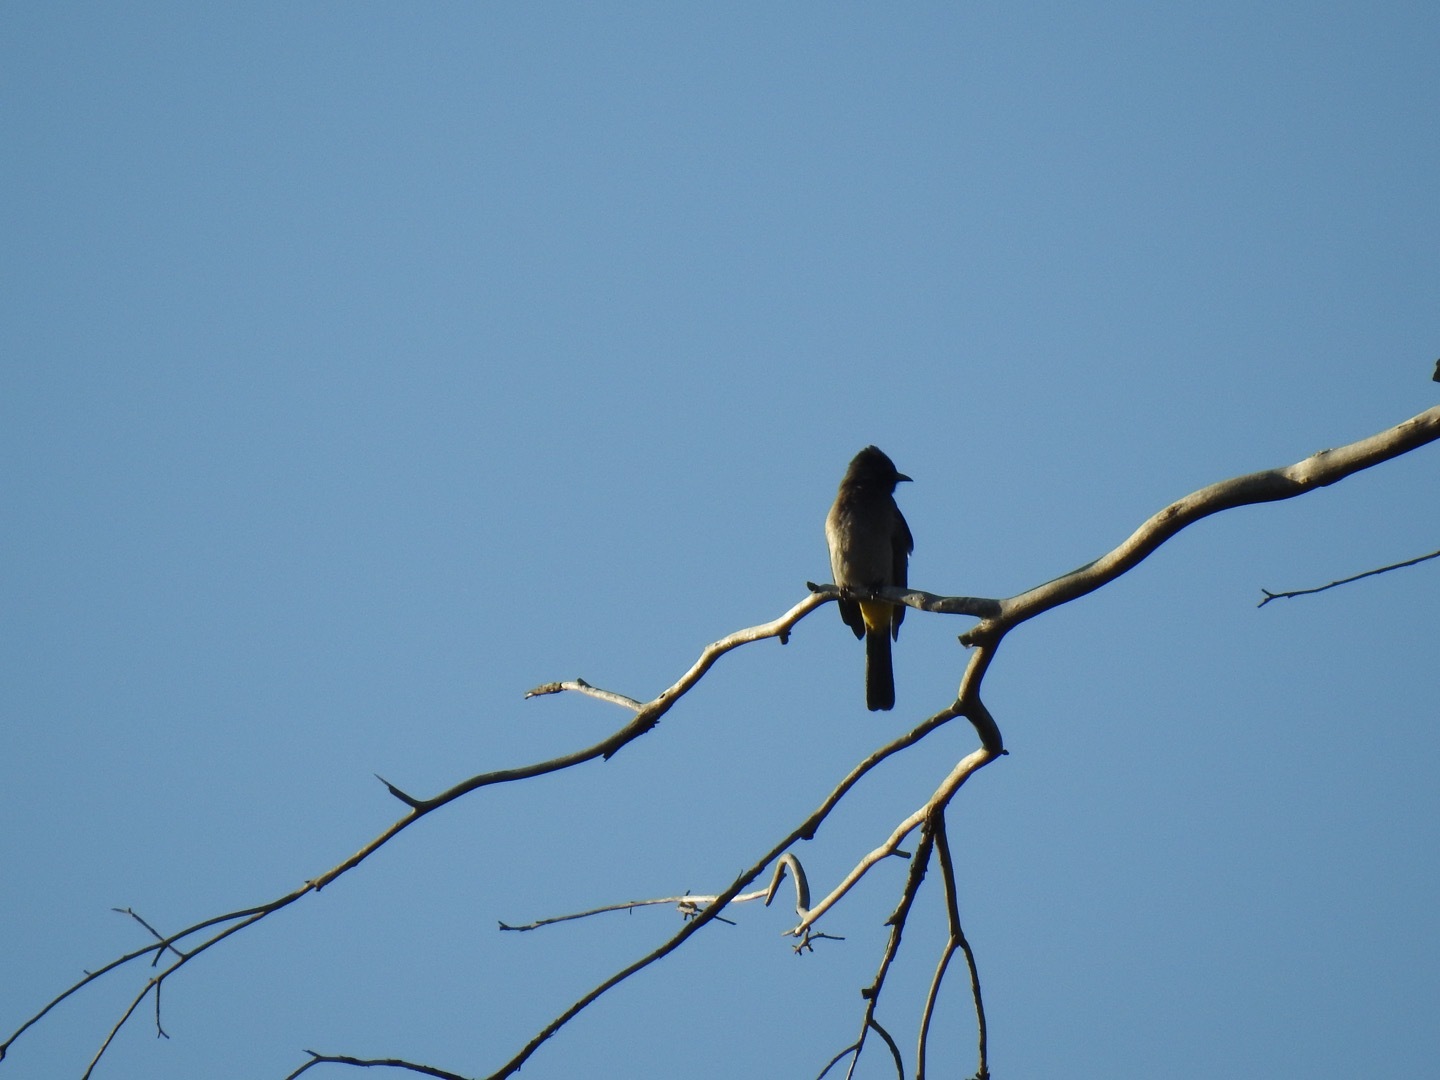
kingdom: Animalia
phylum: Chordata
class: Aves
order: Passeriformes
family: Pycnonotidae
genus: Pycnonotus
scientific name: Pycnonotus barbatus
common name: Common bulbul
